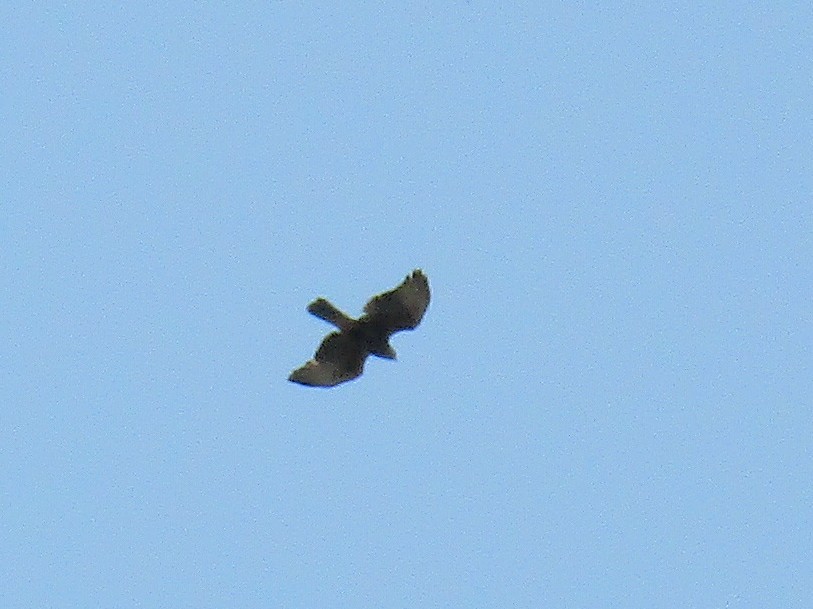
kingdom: Animalia
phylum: Chordata
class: Aves
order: Accipitriformes
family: Accipitridae
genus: Parabuteo
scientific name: Parabuteo unicinctus
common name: Harris's hawk
